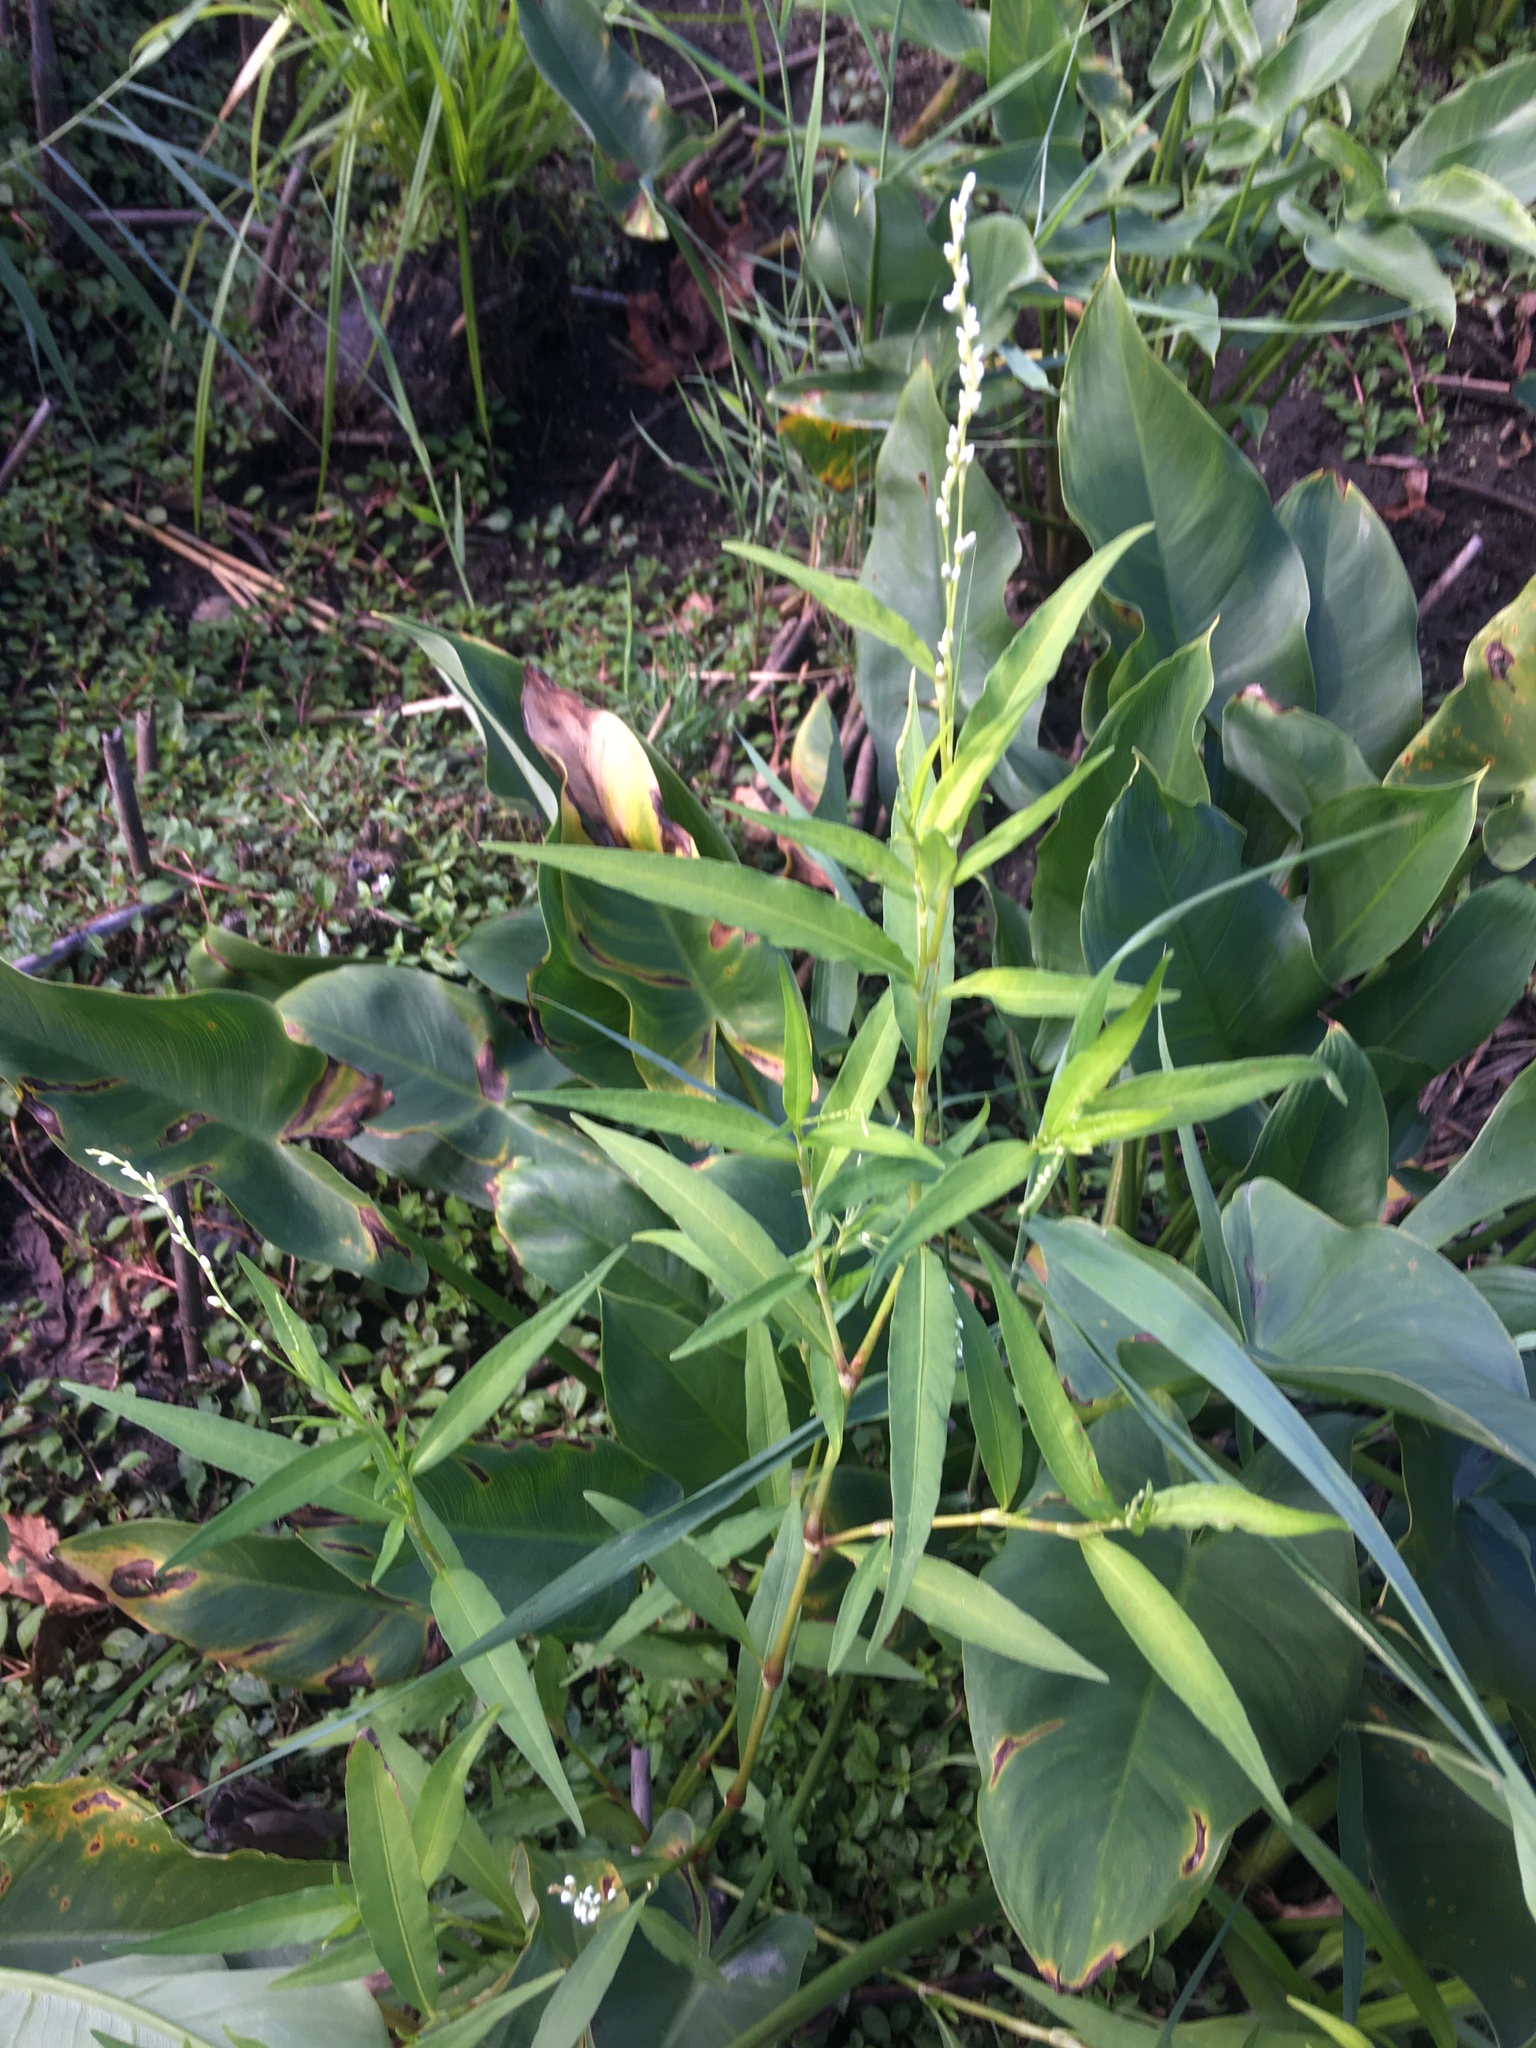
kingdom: Plantae
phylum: Tracheophyta
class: Magnoliopsida
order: Caryophyllales
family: Polygonaceae
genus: Persicaria
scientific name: Persicaria punctata
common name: Dotted smartweed
